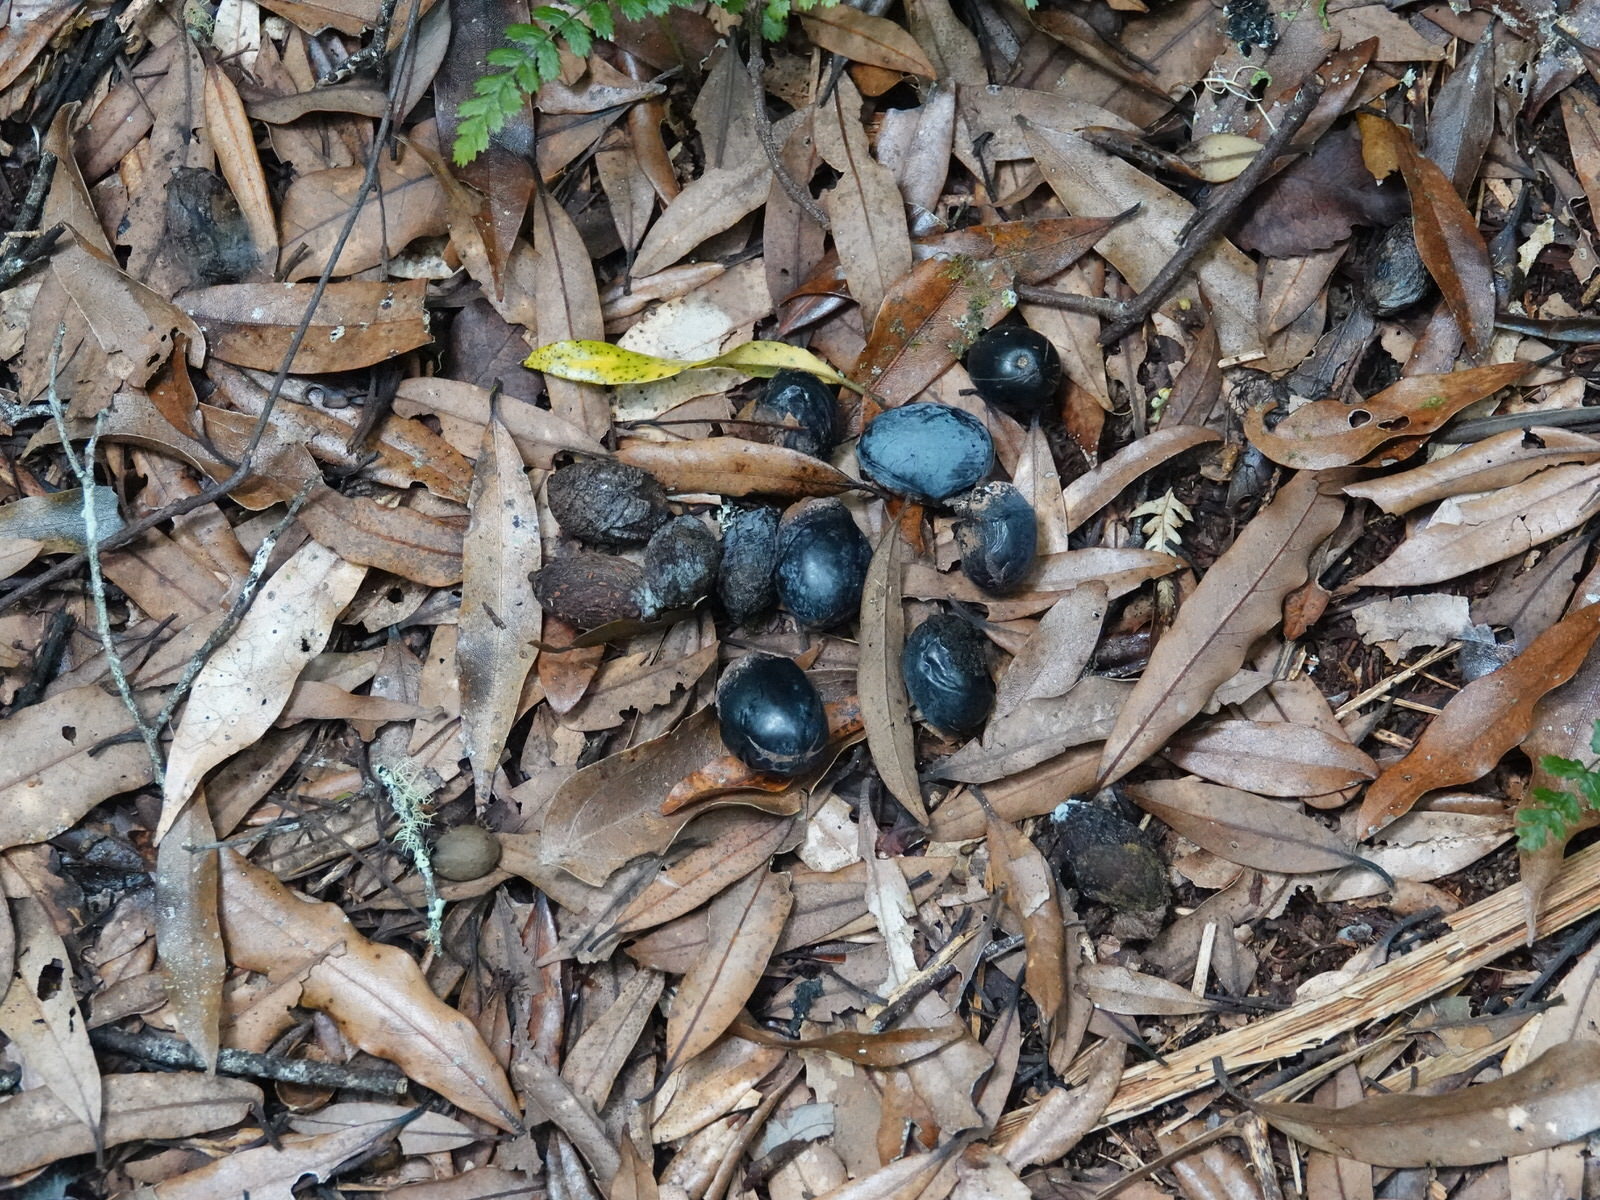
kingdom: Plantae
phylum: Tracheophyta
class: Magnoliopsida
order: Laurales
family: Lauraceae
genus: Beilschmiedia
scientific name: Beilschmiedia tawa
